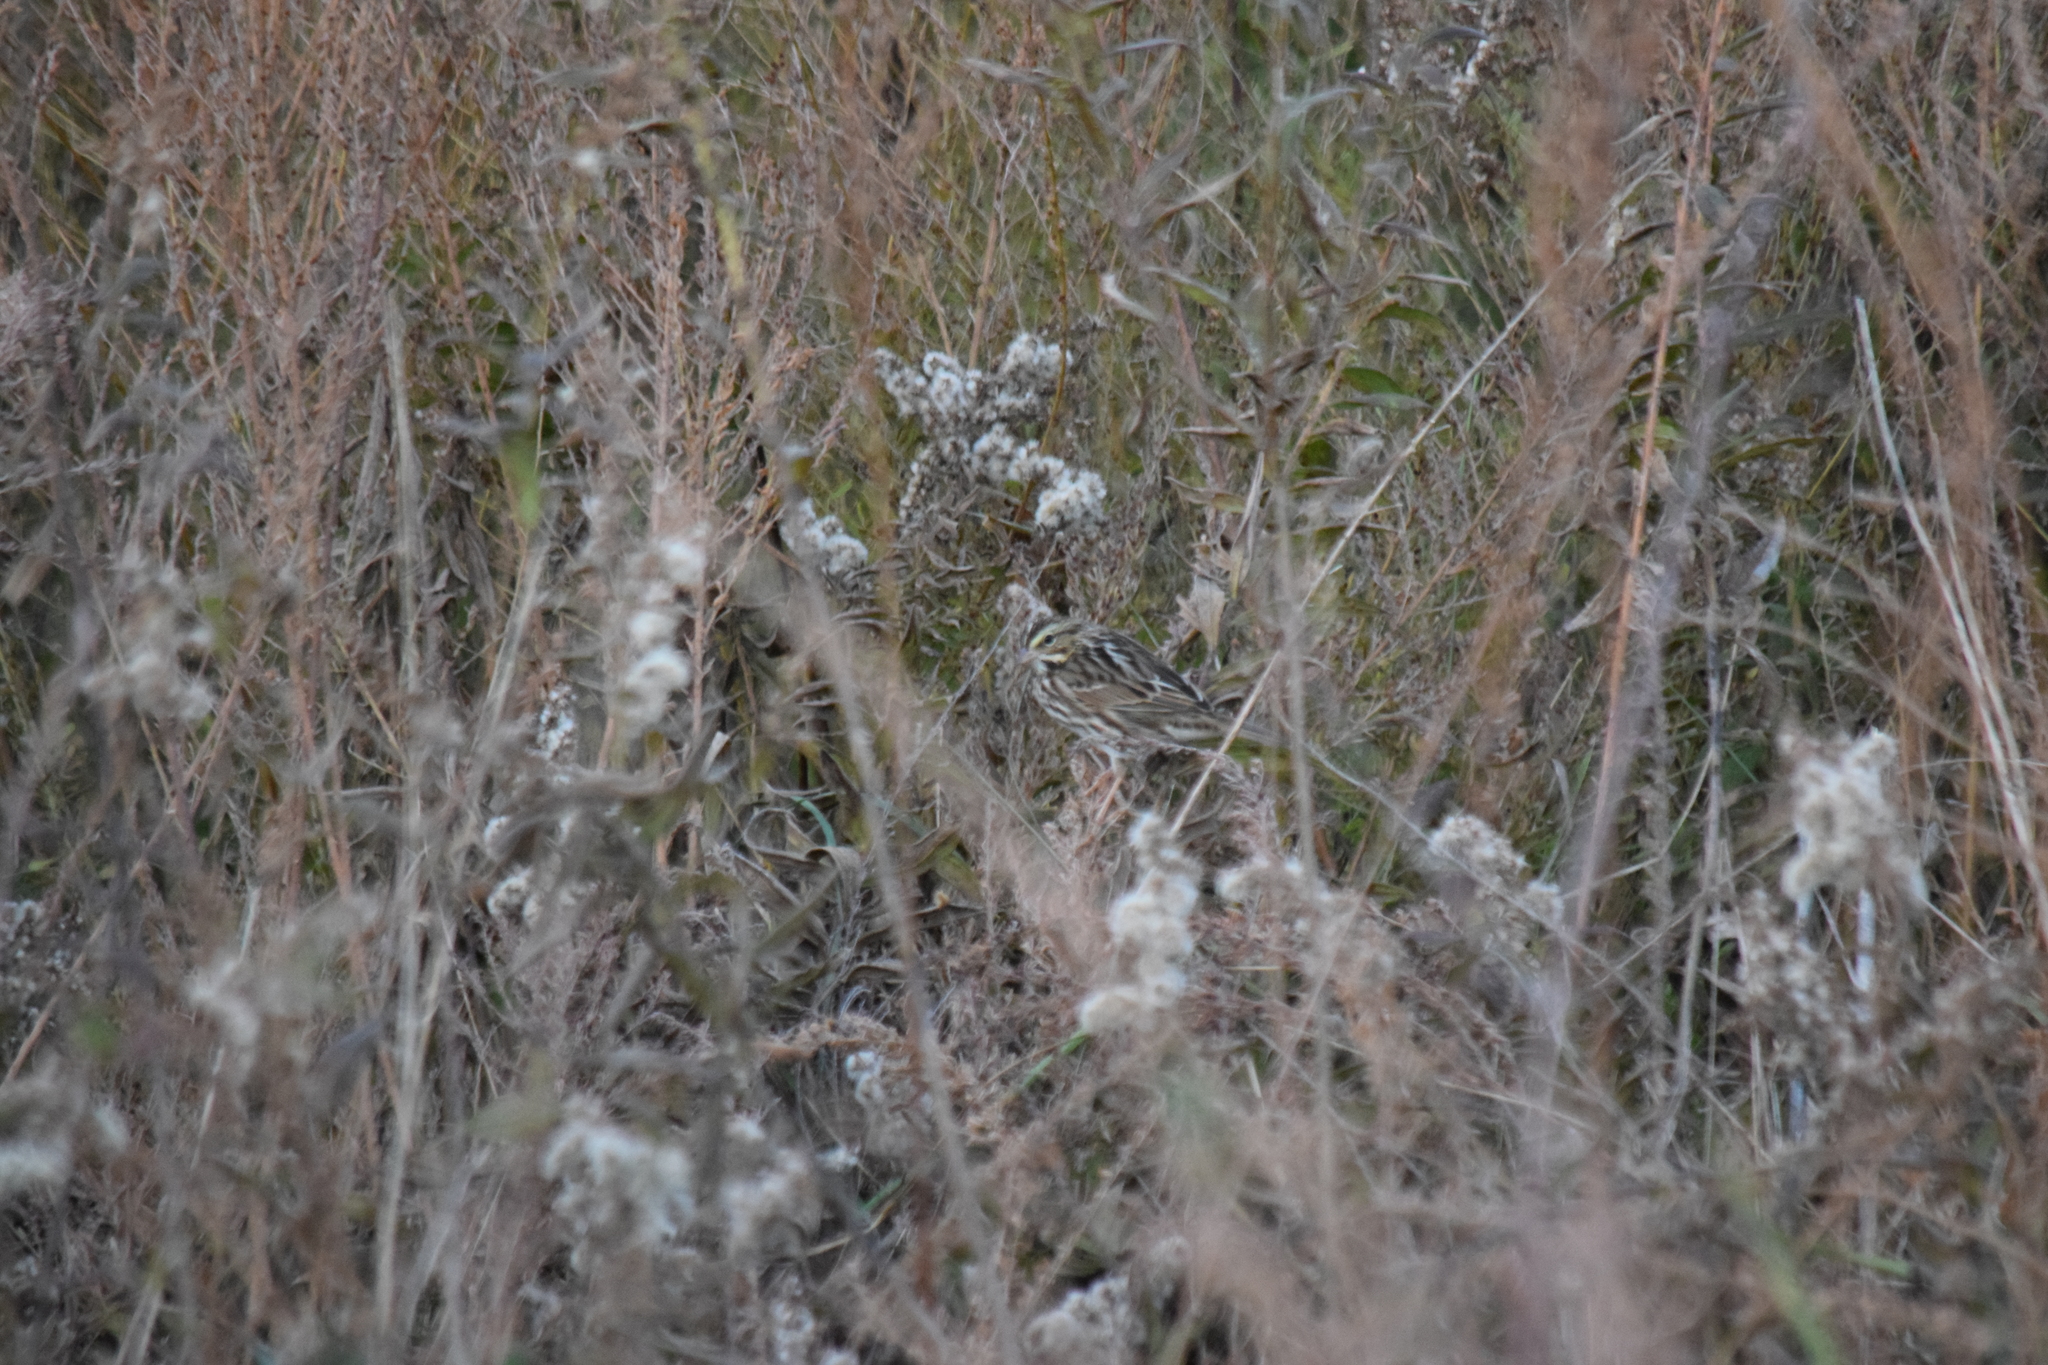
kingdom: Animalia
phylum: Chordata
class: Aves
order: Passeriformes
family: Passerellidae
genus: Passerculus
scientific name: Passerculus sandwichensis
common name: Savannah sparrow
